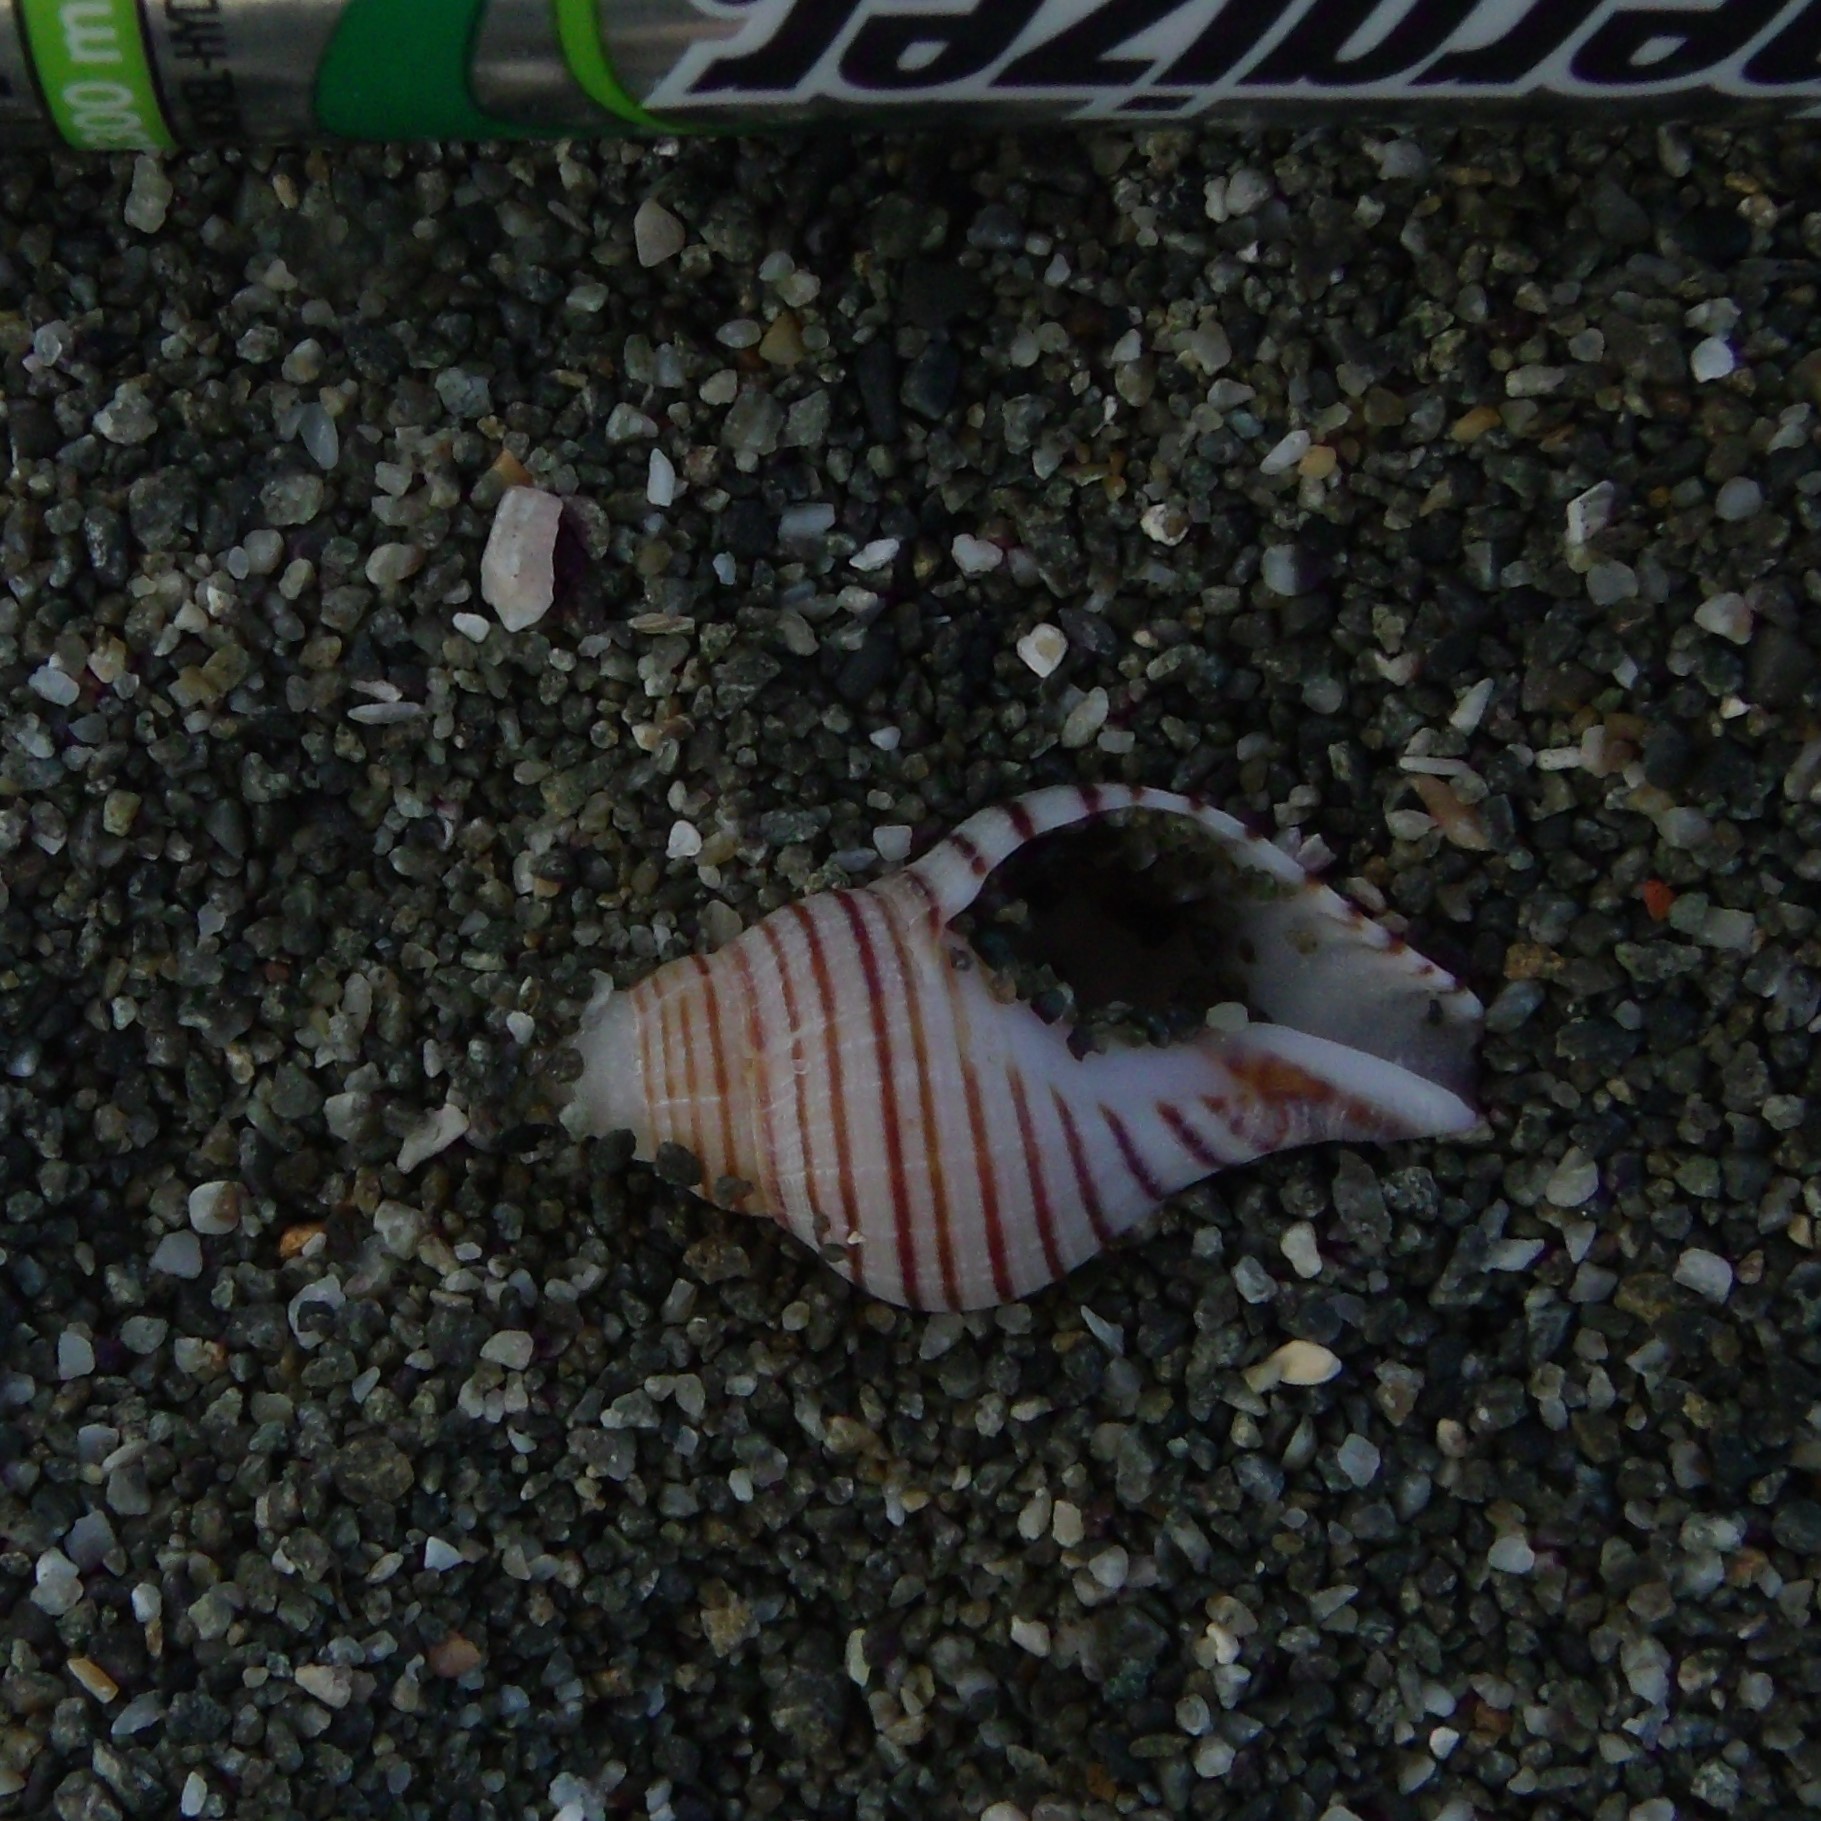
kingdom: Animalia
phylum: Mollusca
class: Gastropoda
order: Neogastropoda
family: Tudiclidae
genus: Buccinulum
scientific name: Buccinulum linea
